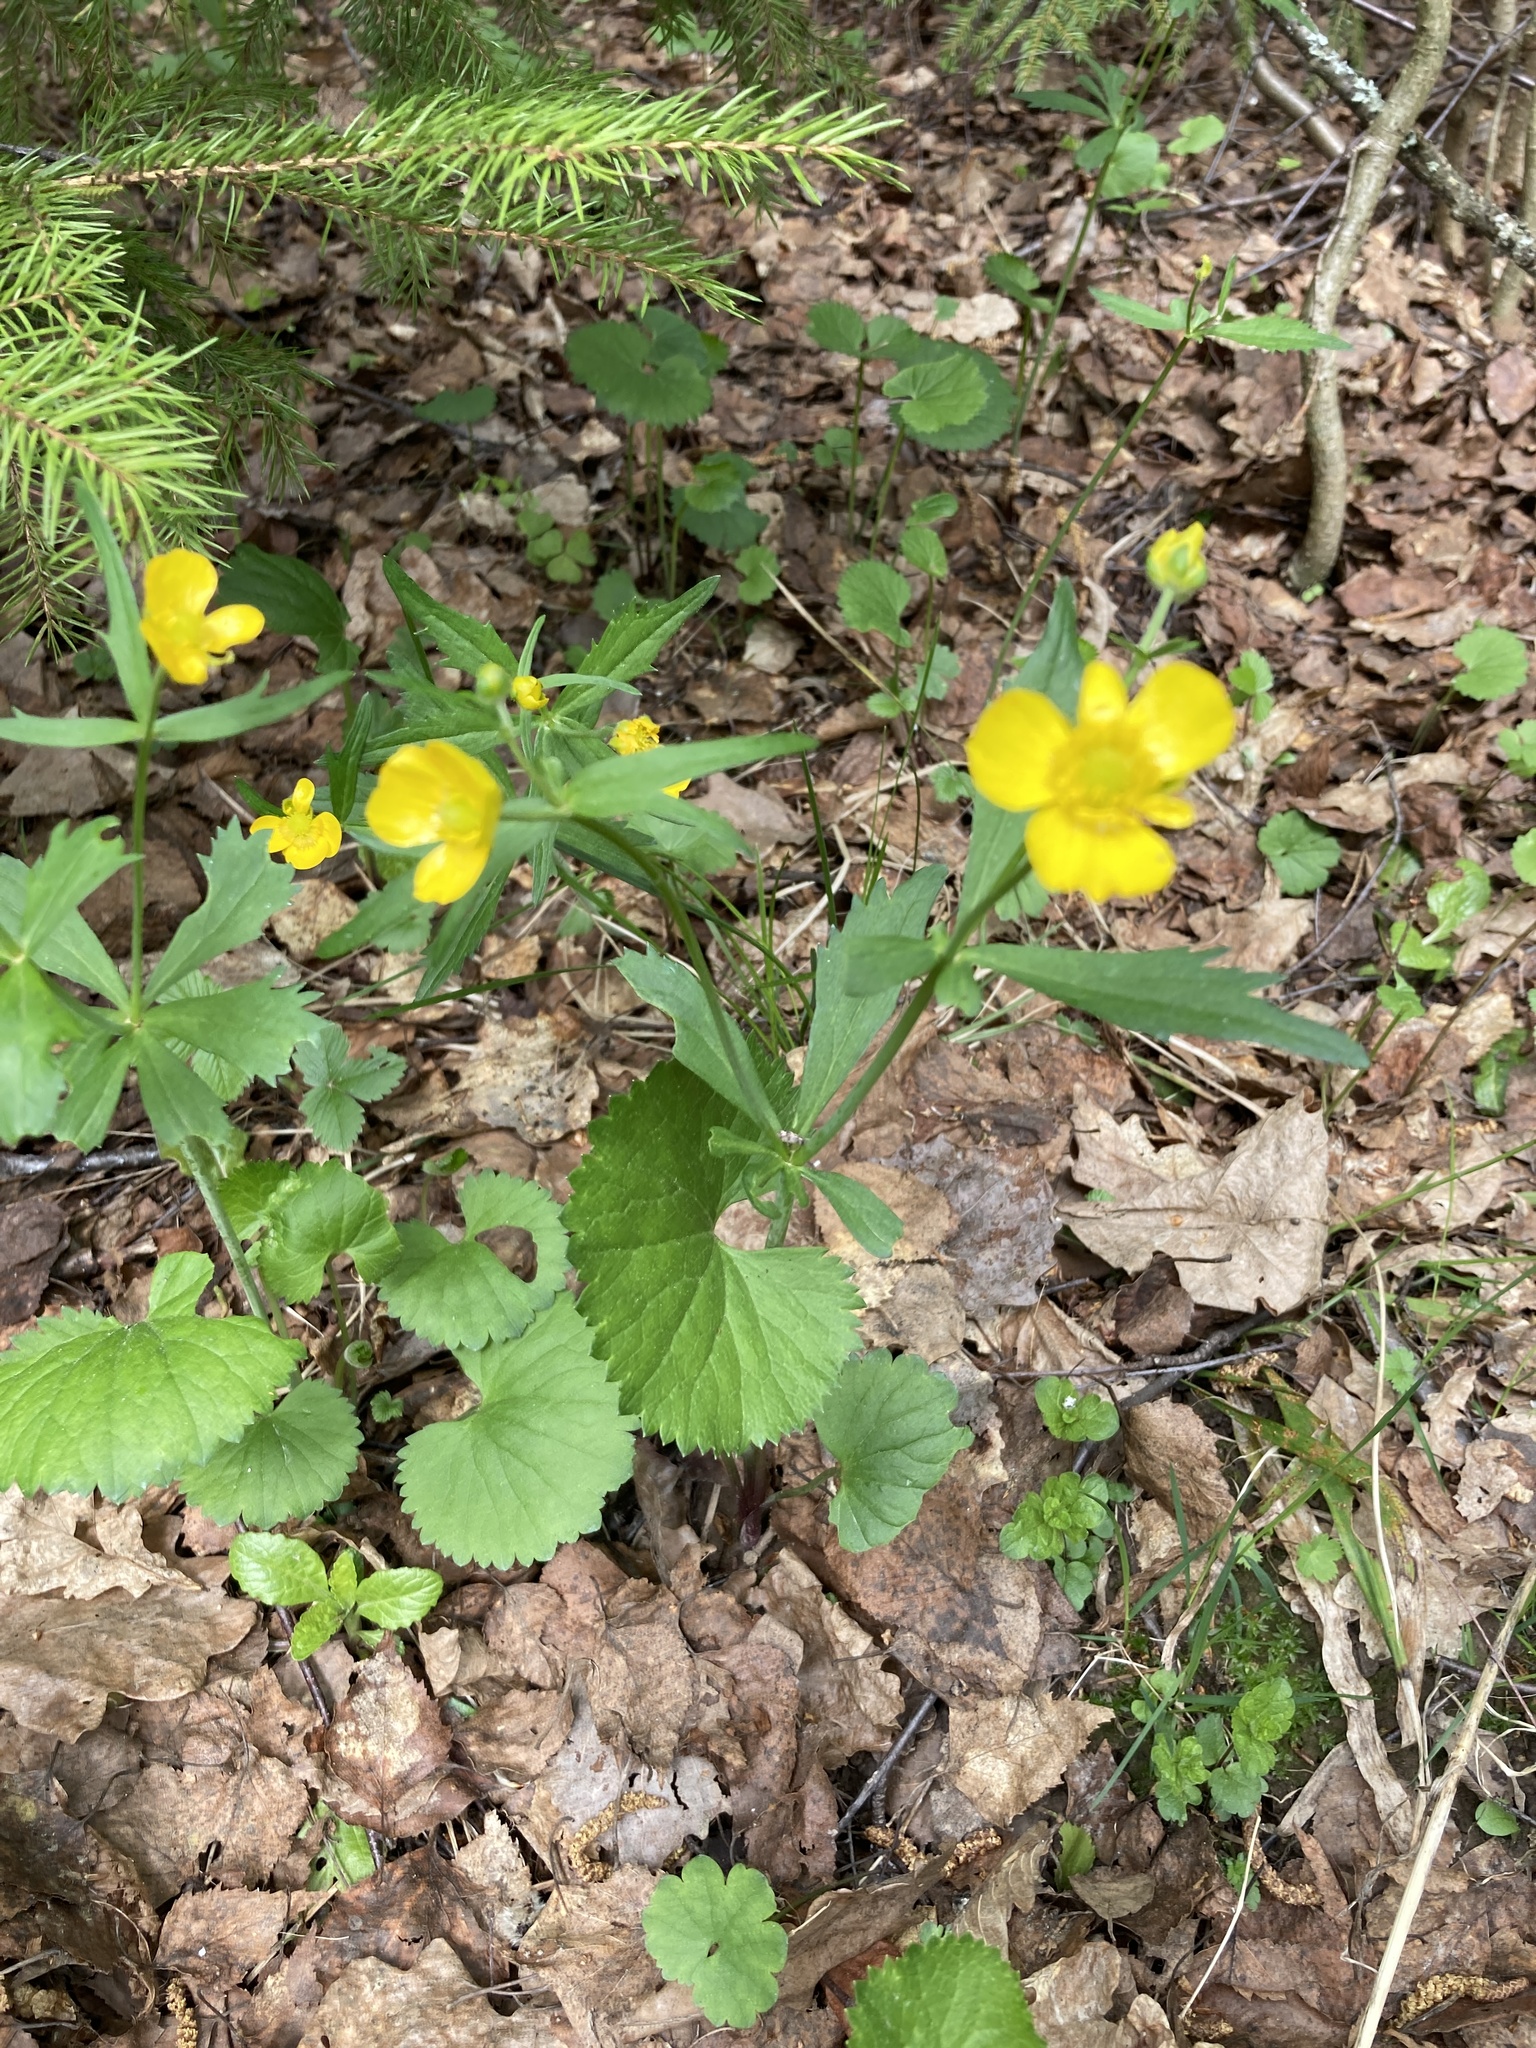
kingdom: Plantae
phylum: Tracheophyta
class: Magnoliopsida
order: Ranunculales
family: Ranunculaceae
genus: Ranunculus
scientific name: Ranunculus cassubicus
